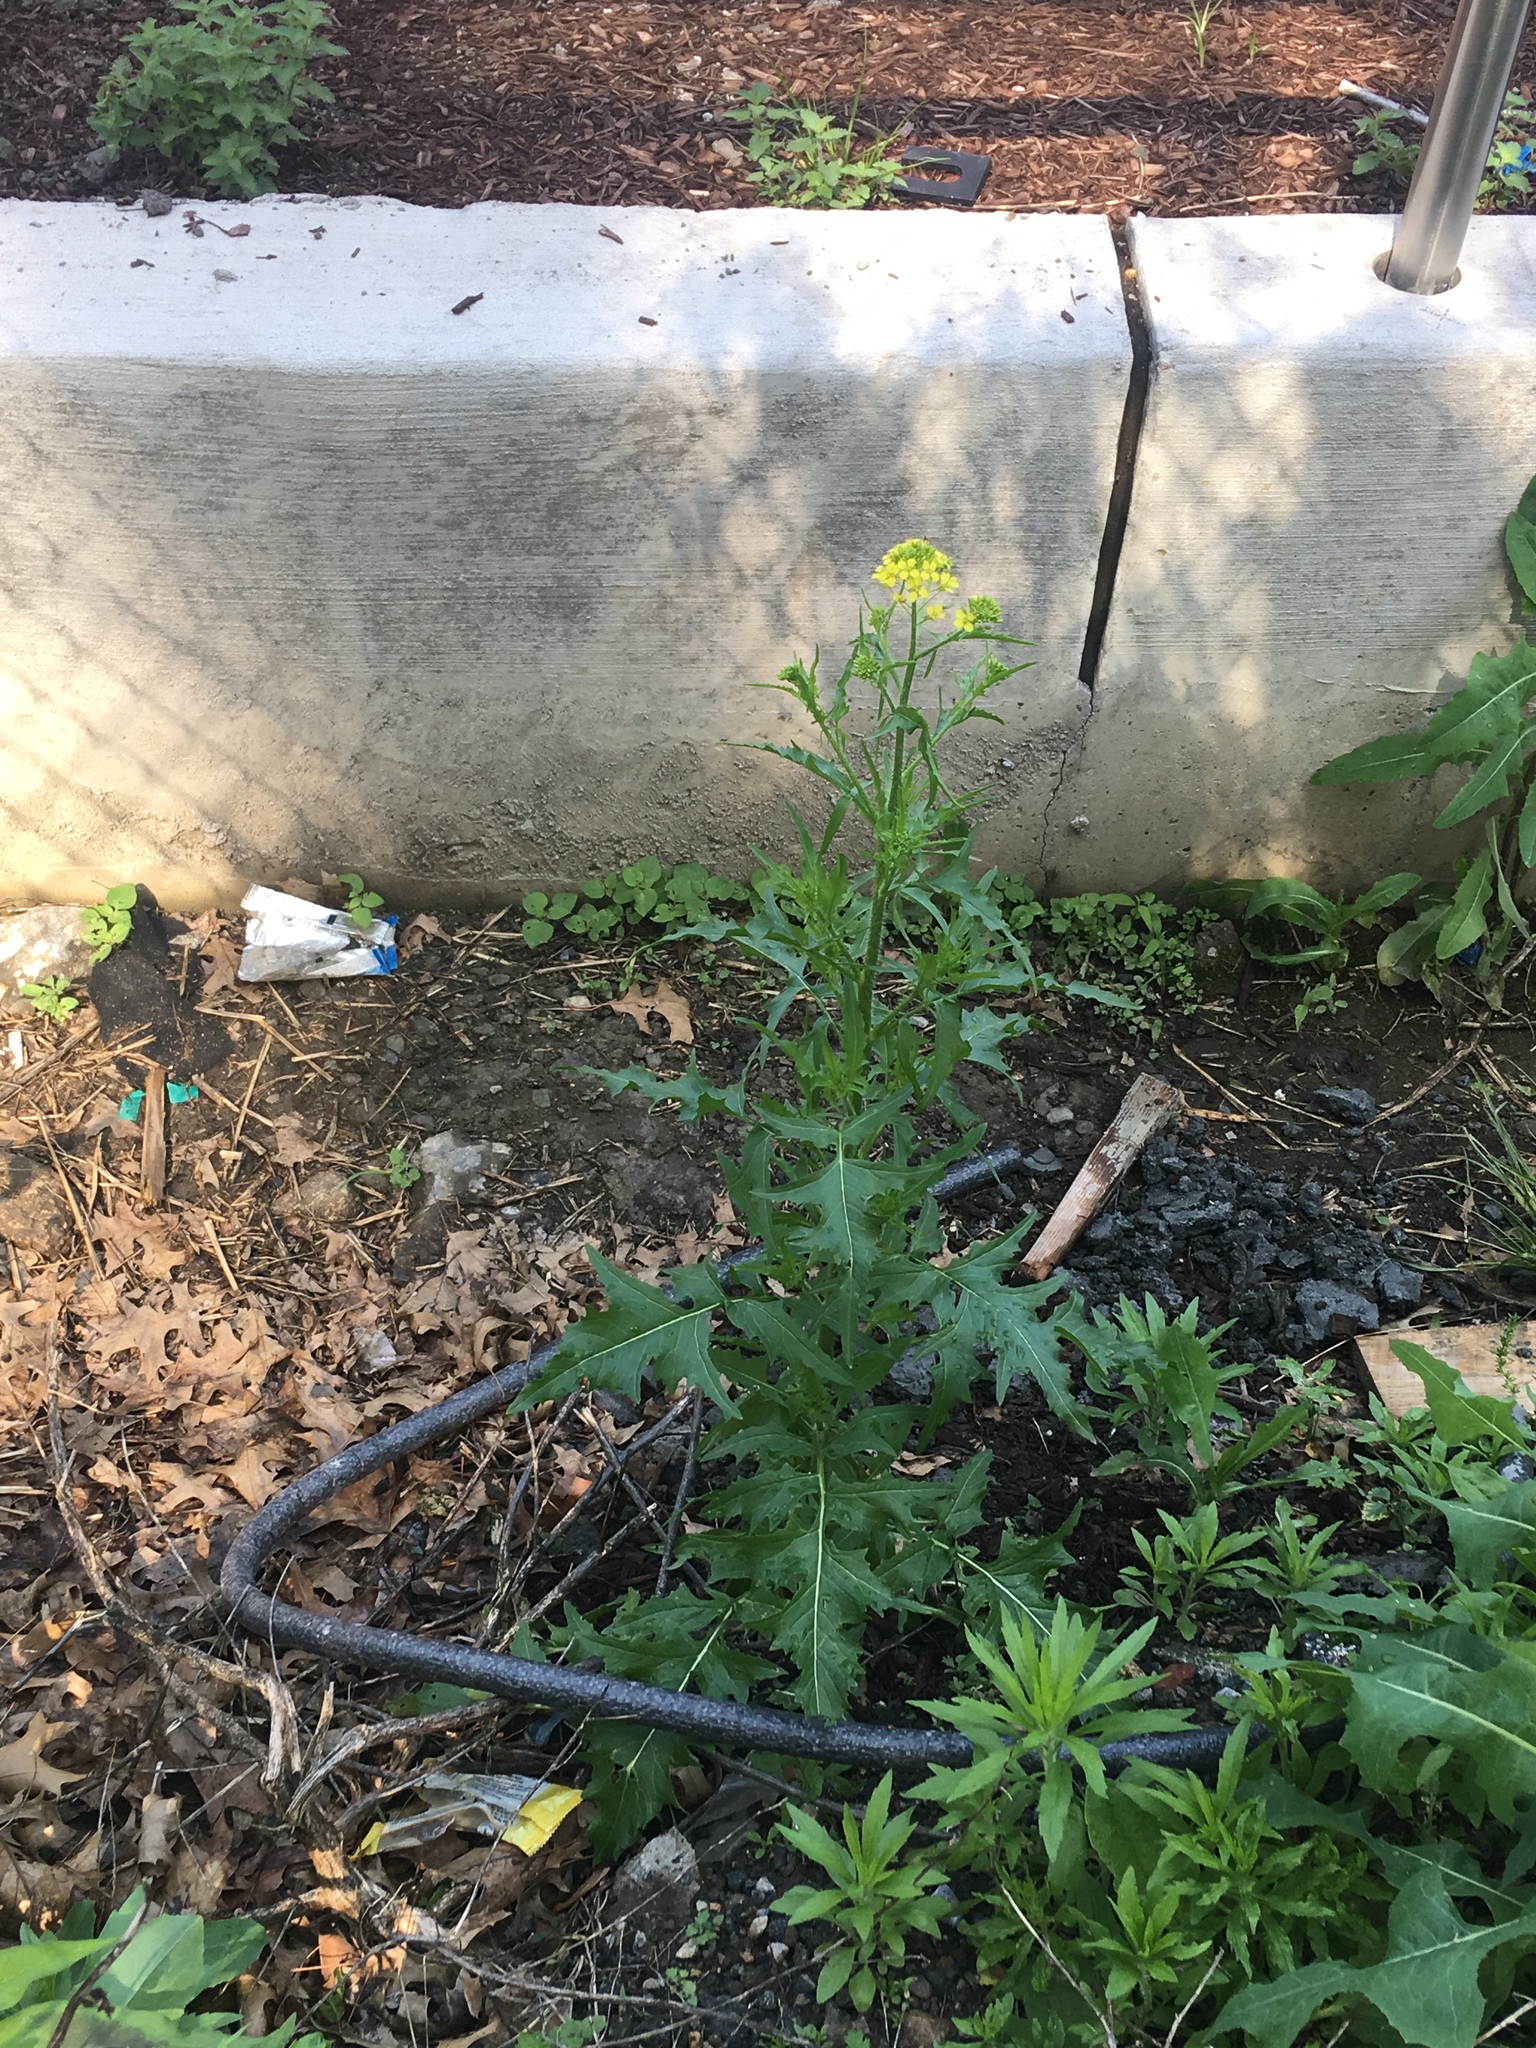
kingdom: Plantae
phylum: Tracheophyta
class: Magnoliopsida
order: Brassicales
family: Brassicaceae
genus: Sisymbrium
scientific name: Sisymbrium loeselii
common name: False london-rocket
